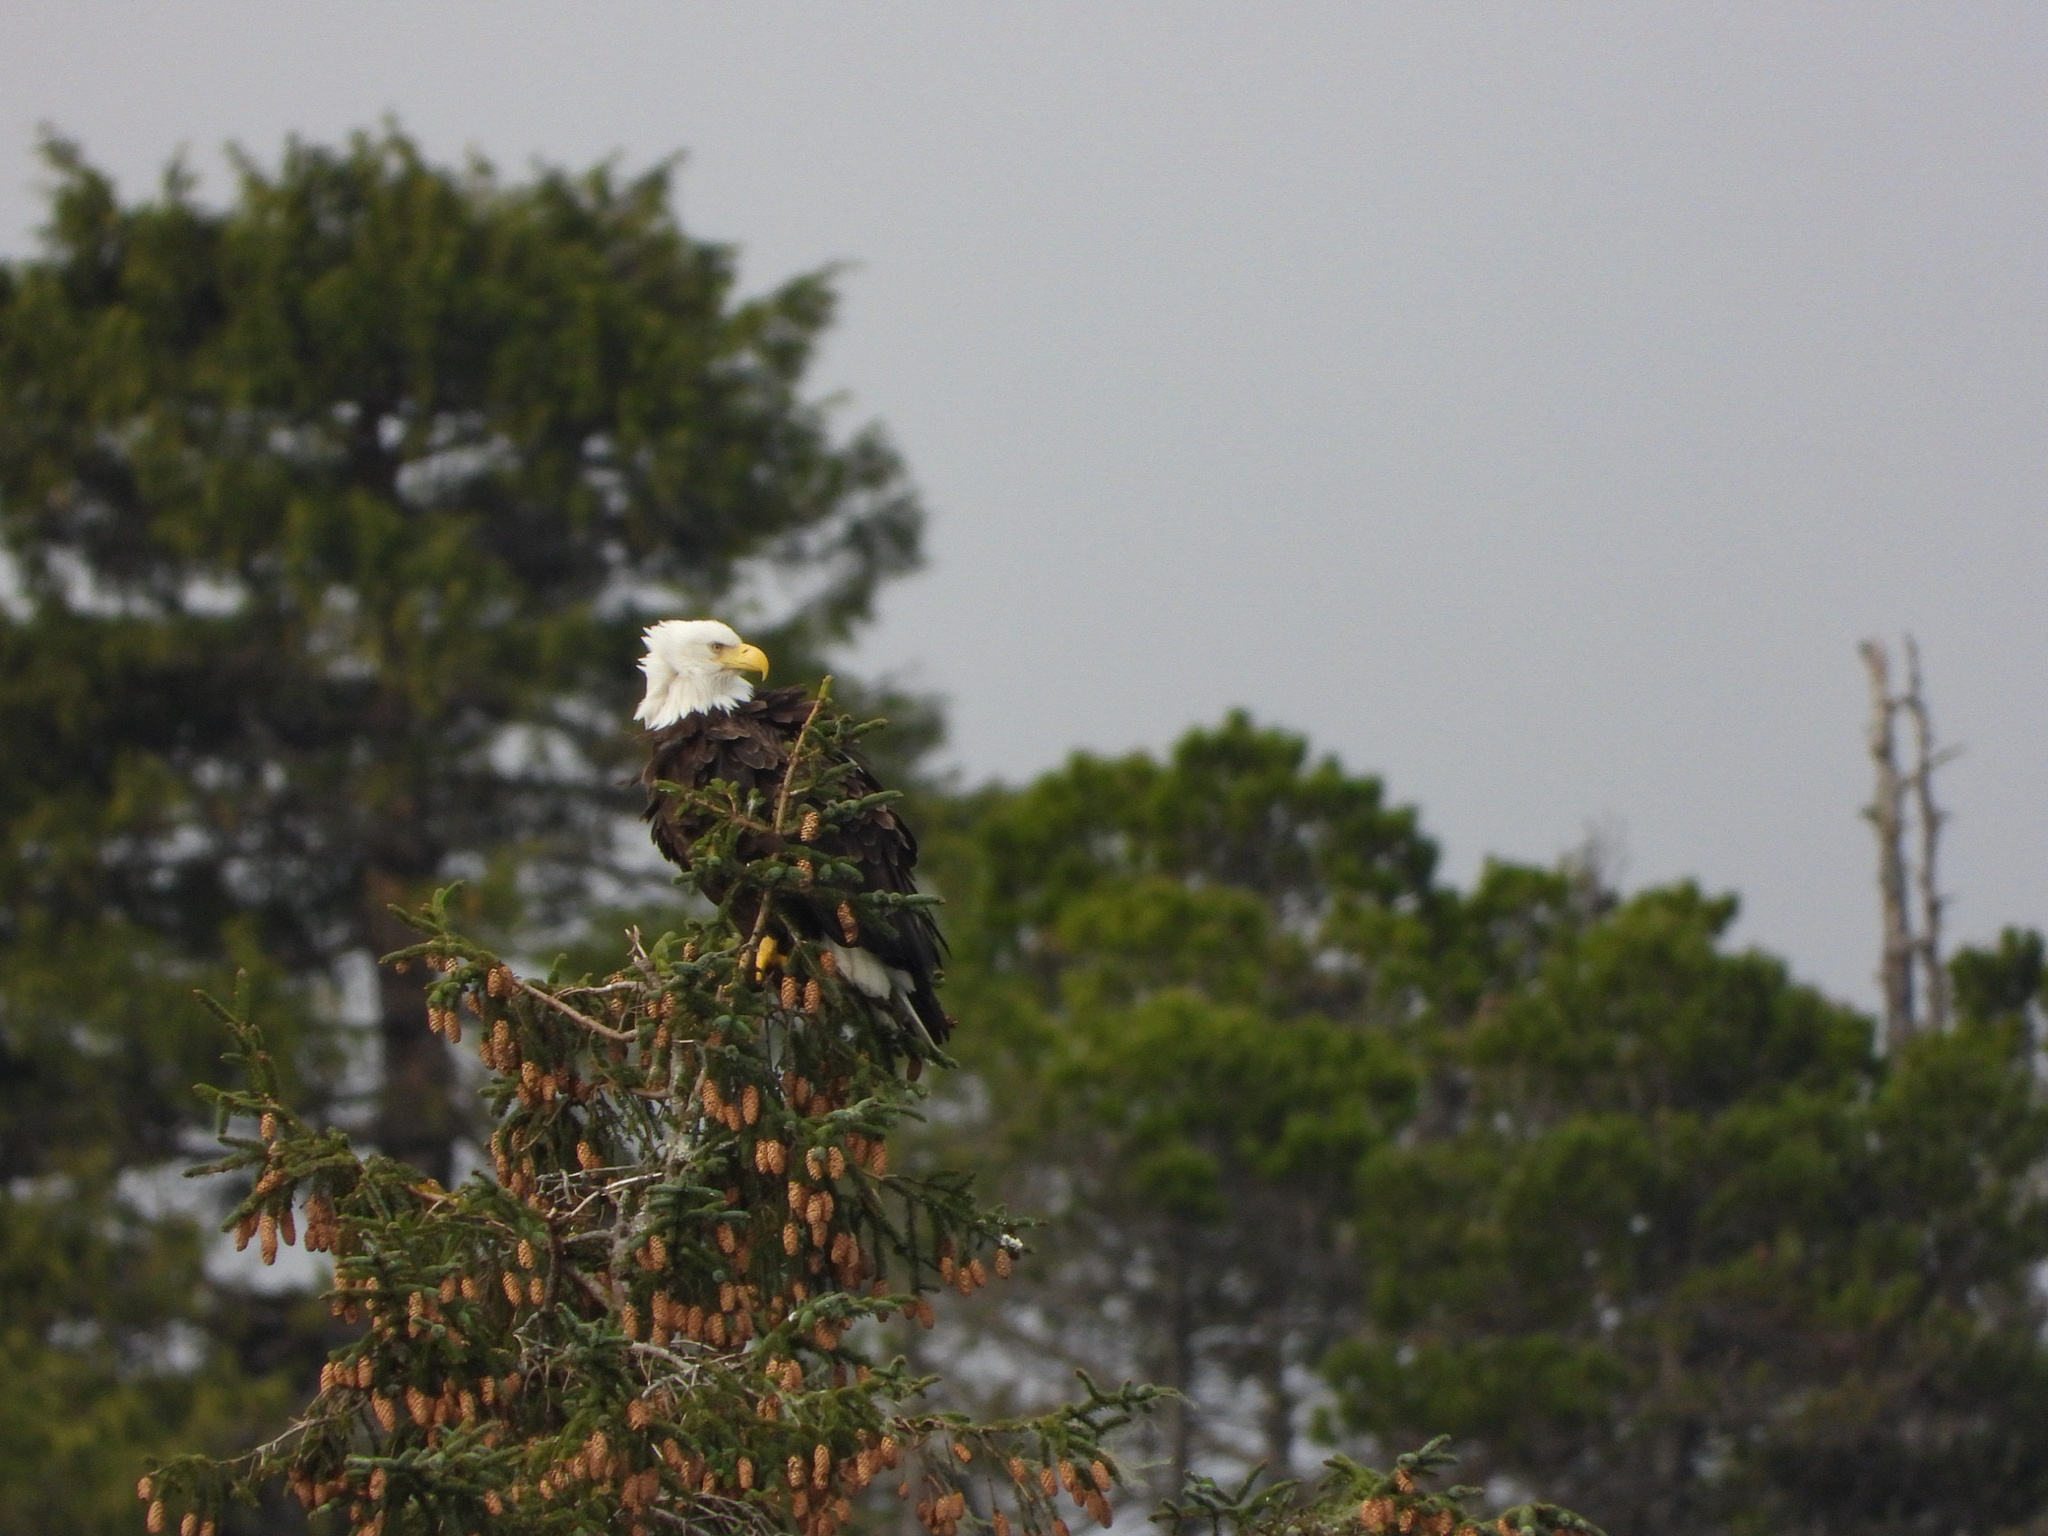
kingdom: Animalia
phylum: Chordata
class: Aves
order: Accipitriformes
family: Accipitridae
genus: Haliaeetus
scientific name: Haliaeetus leucocephalus
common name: Bald eagle
